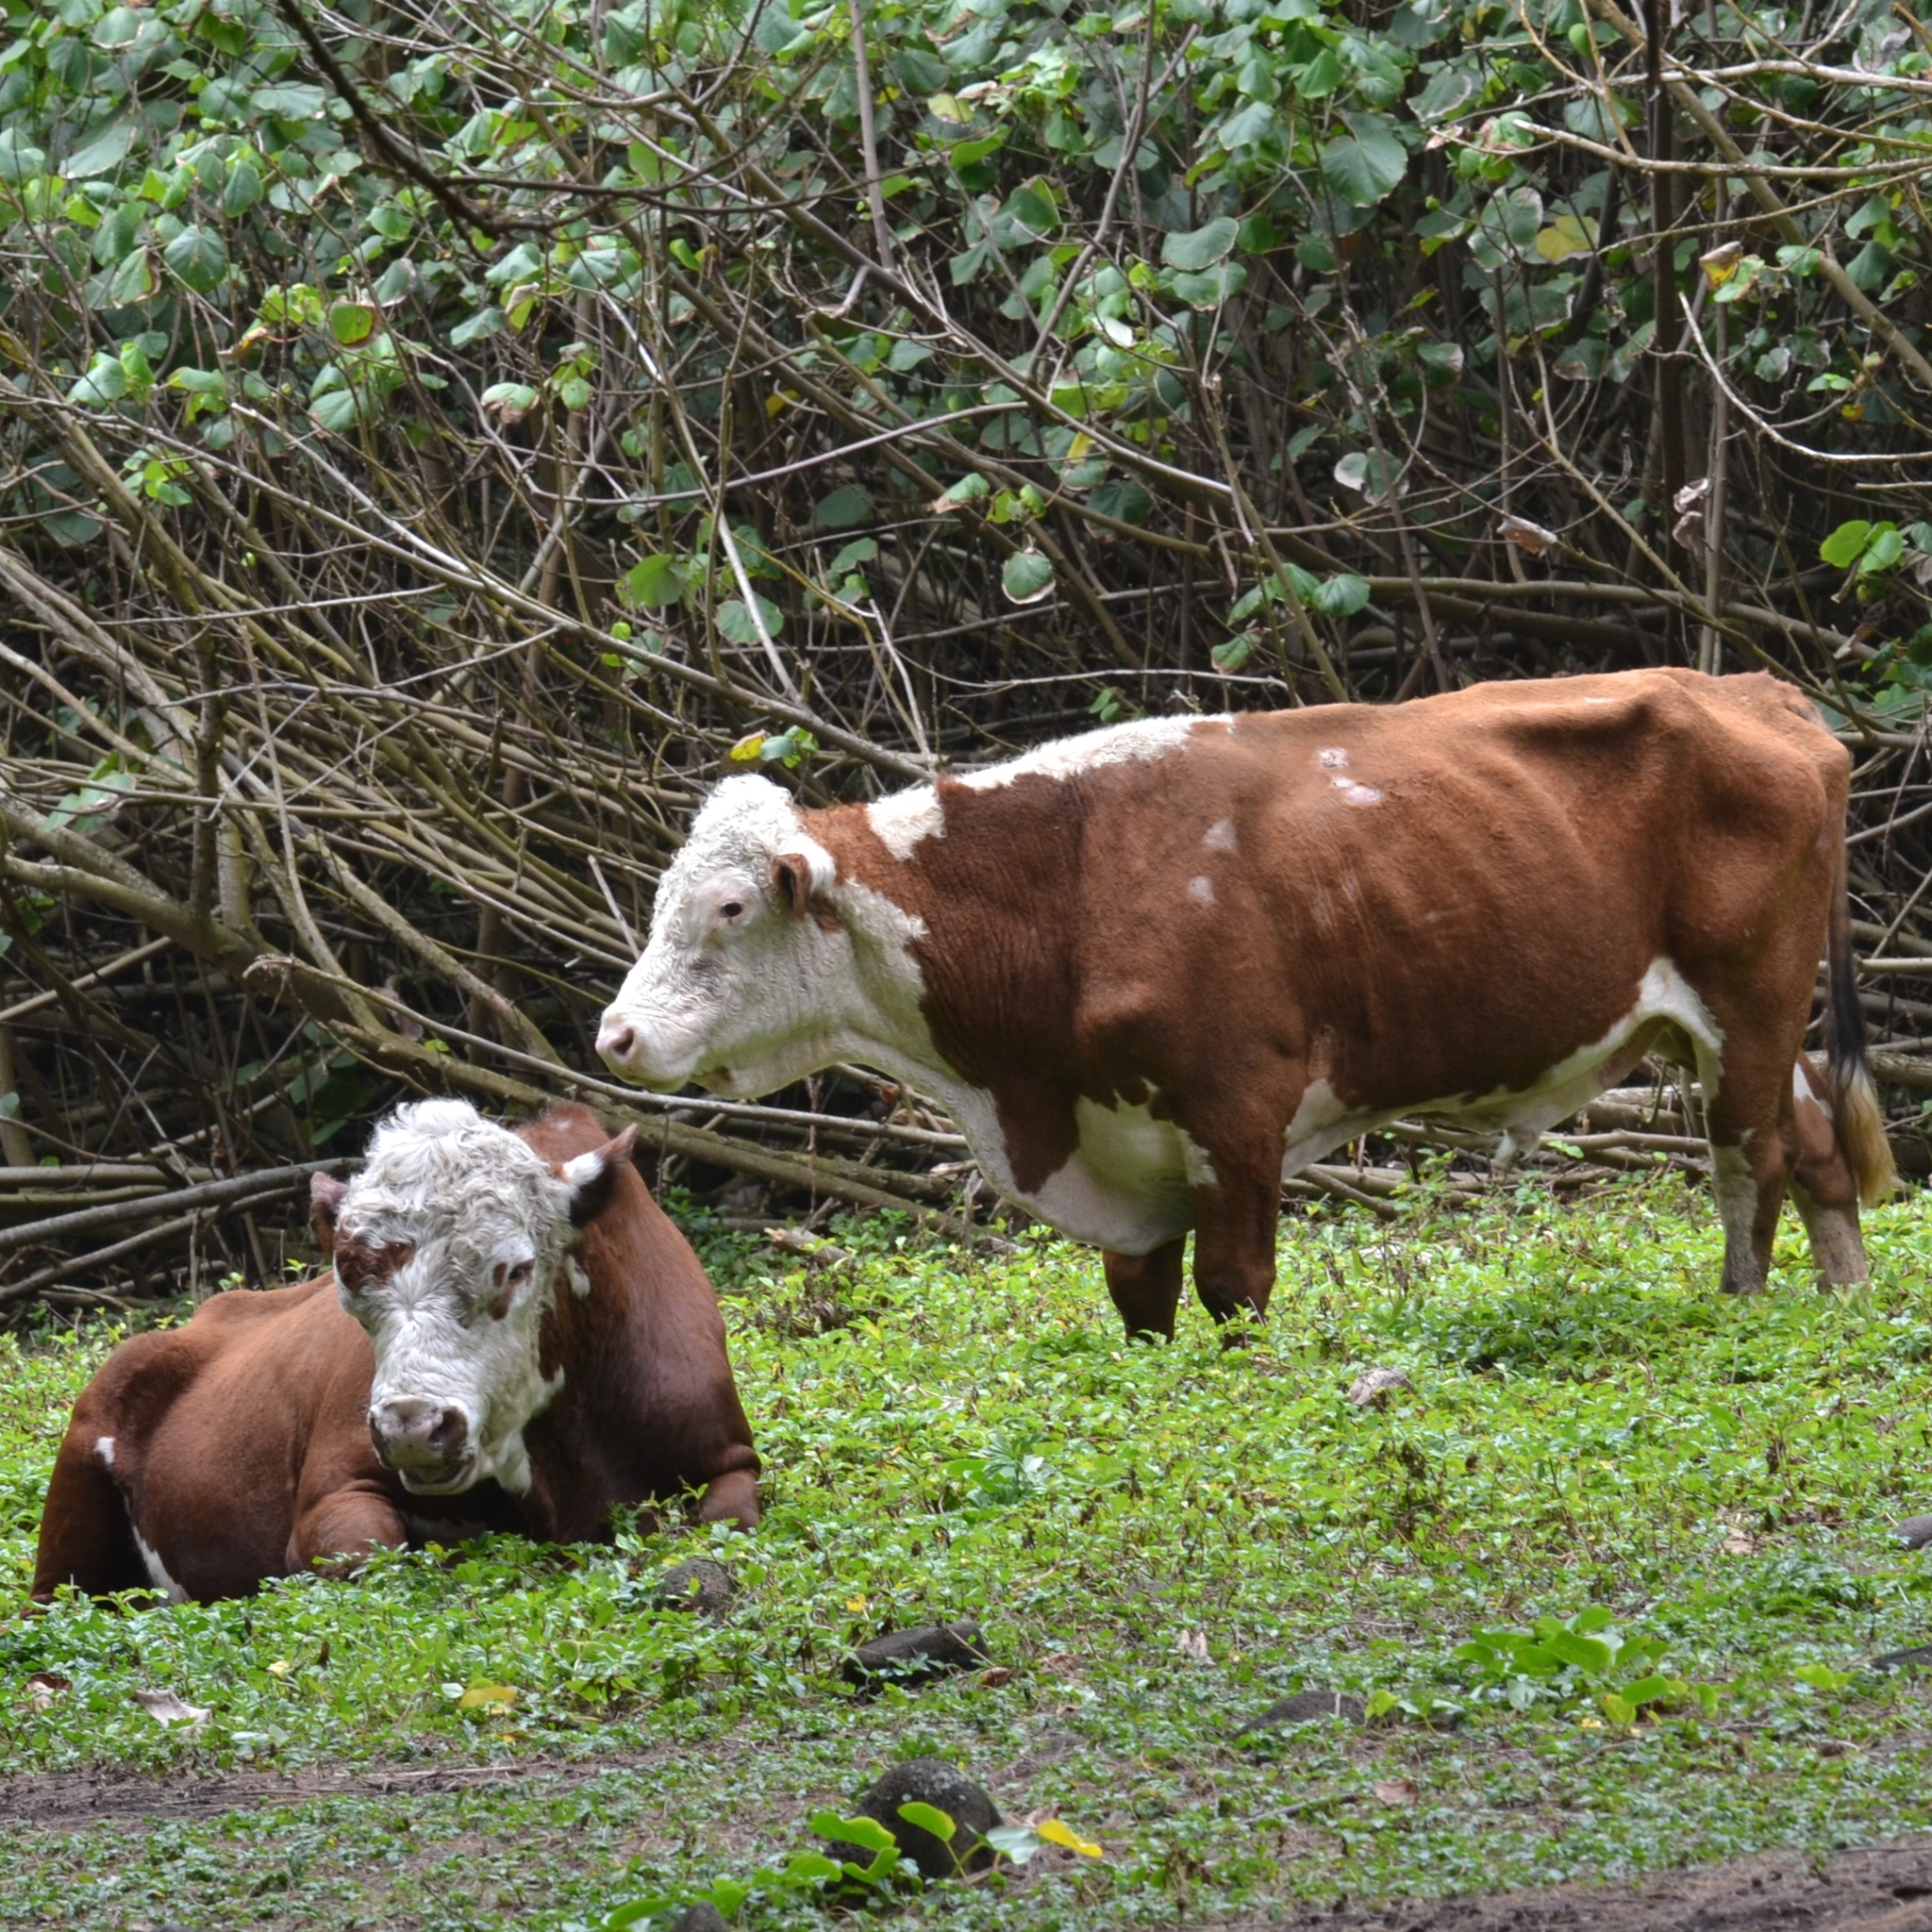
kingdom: Animalia
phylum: Chordata
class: Mammalia
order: Artiodactyla
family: Bovidae
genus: Bos
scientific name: Bos taurus
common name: Domesticated cattle
